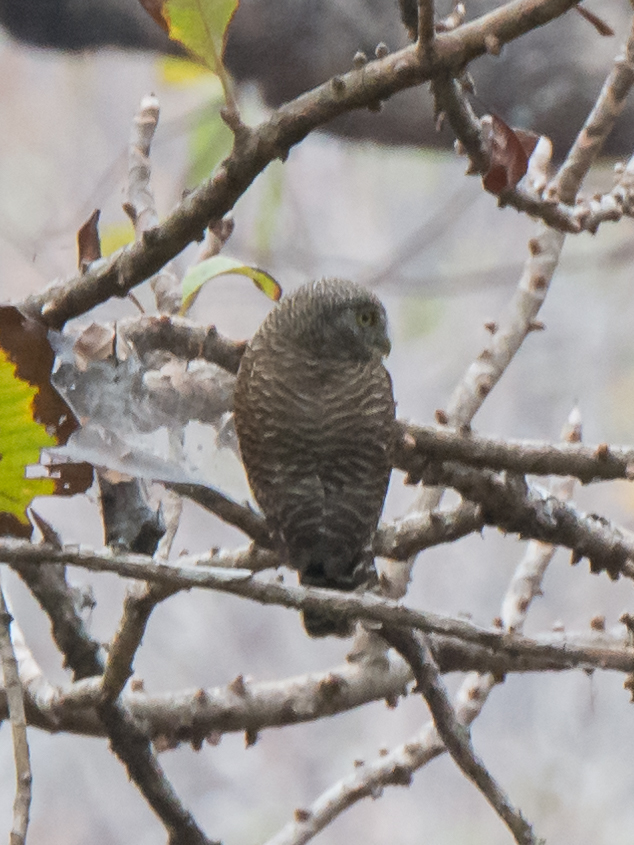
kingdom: Animalia
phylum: Chordata
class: Aves
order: Strigiformes
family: Strigidae
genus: Glaucidium
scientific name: Glaucidium cuculoides
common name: Asian barred owlet
